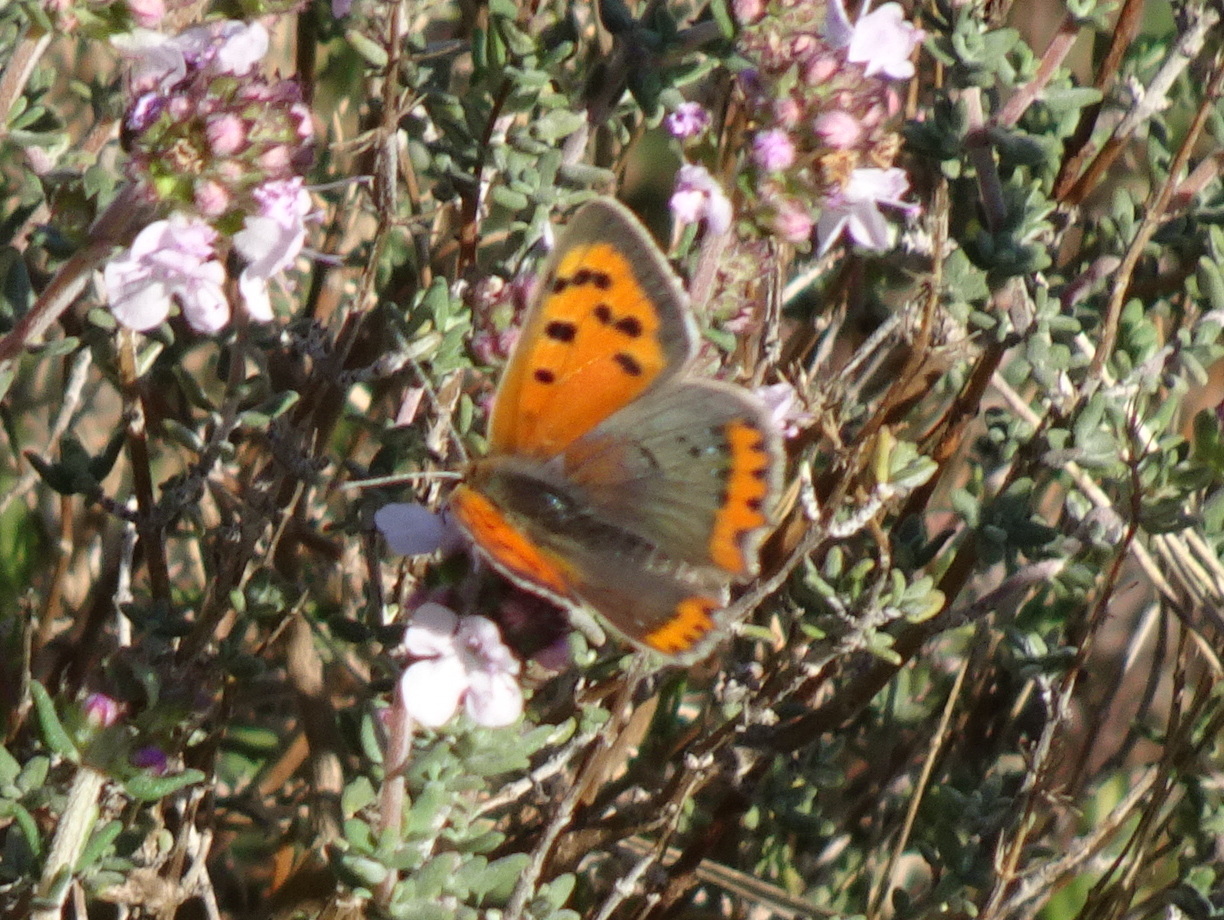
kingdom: Animalia
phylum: Arthropoda
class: Insecta
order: Lepidoptera
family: Lycaenidae
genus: Lycaena
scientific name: Lycaena phlaeas
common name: Small copper
